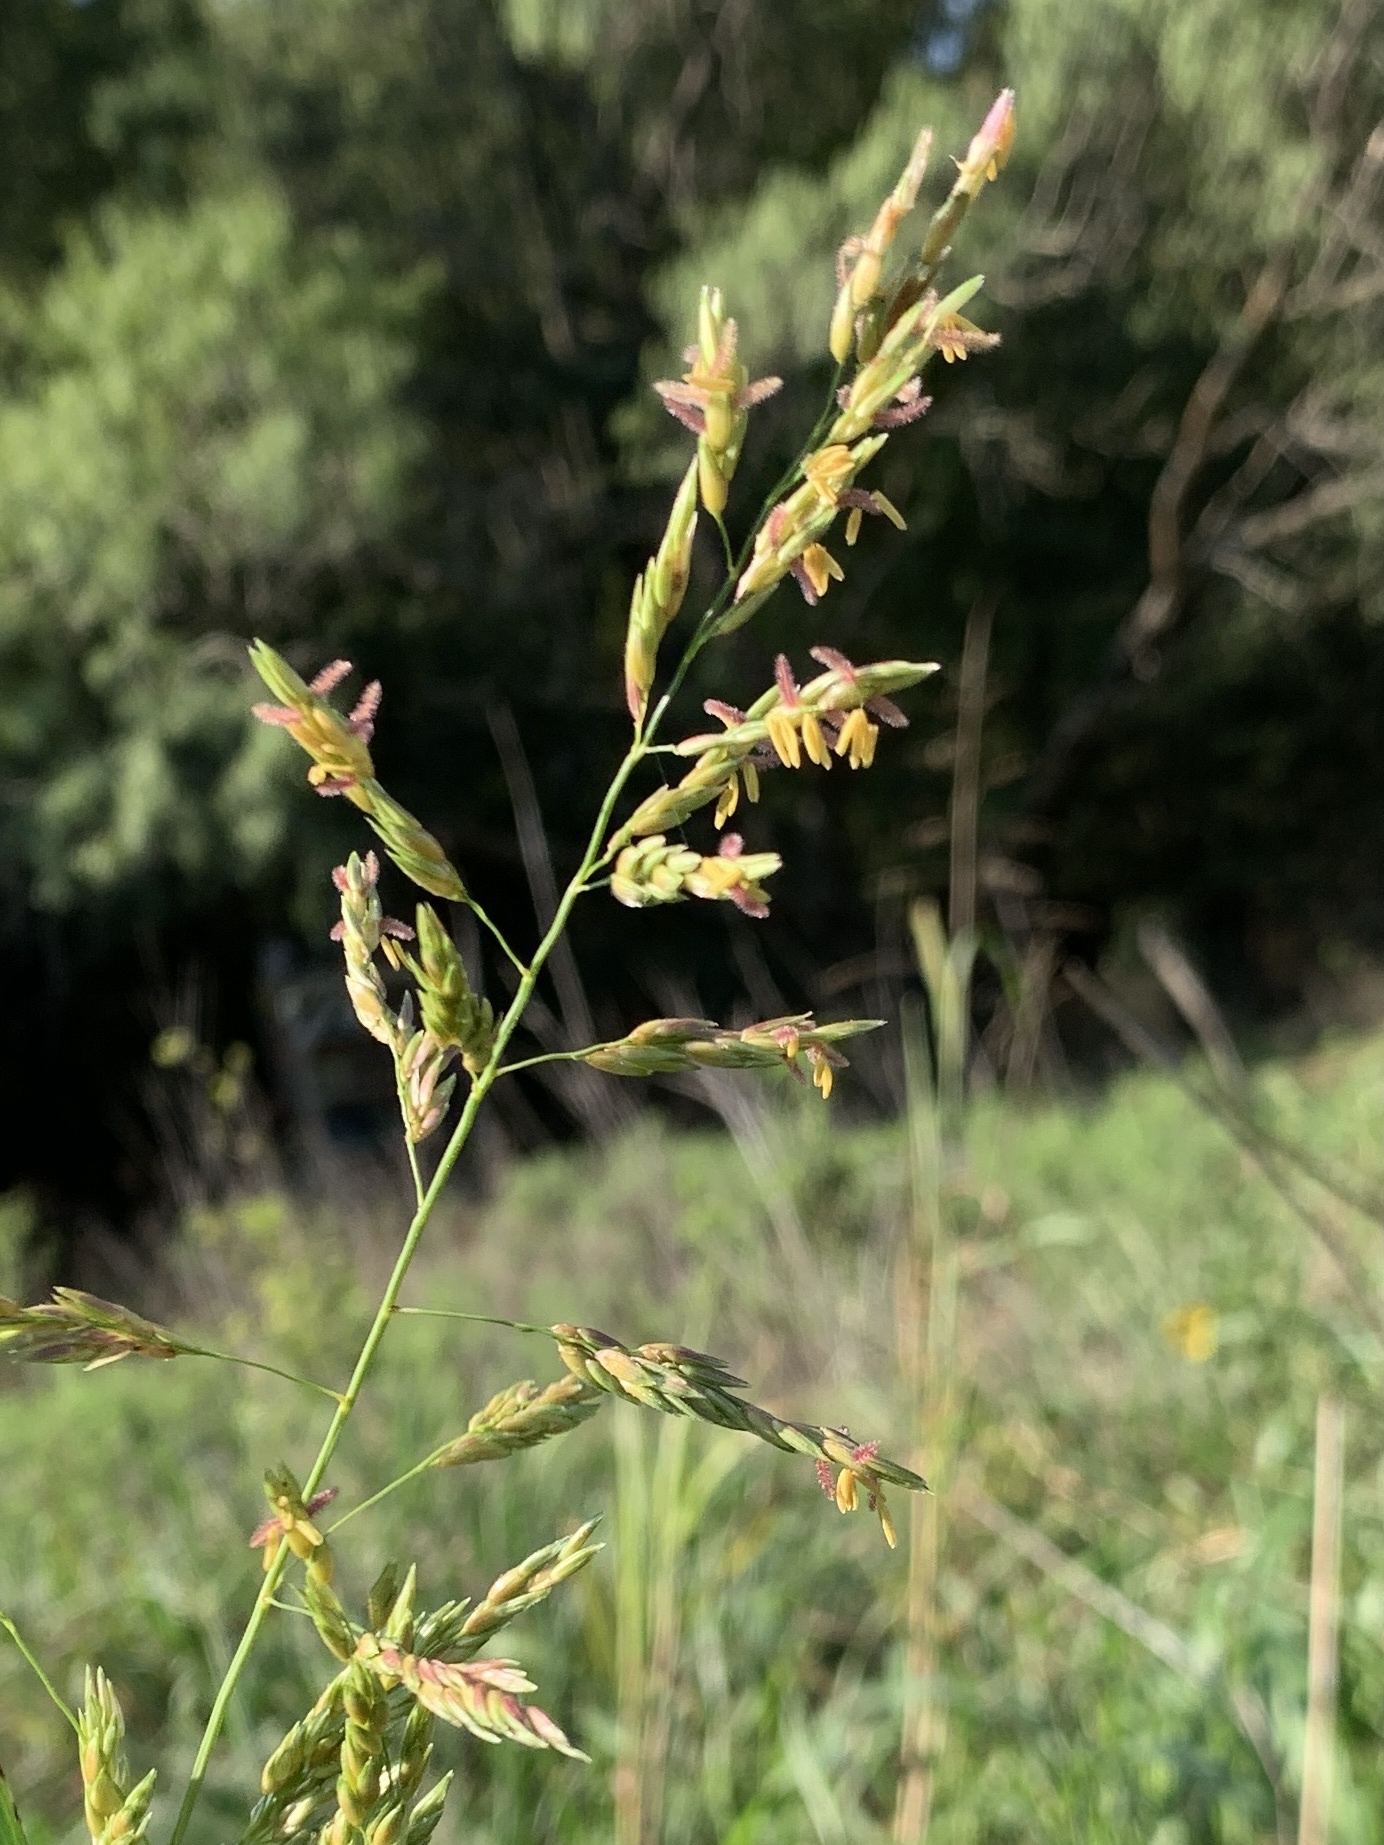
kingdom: Plantae
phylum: Tracheophyta
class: Liliopsida
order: Poales
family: Poaceae
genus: Sorghum
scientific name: Sorghum halepense
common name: Johnson-grass
